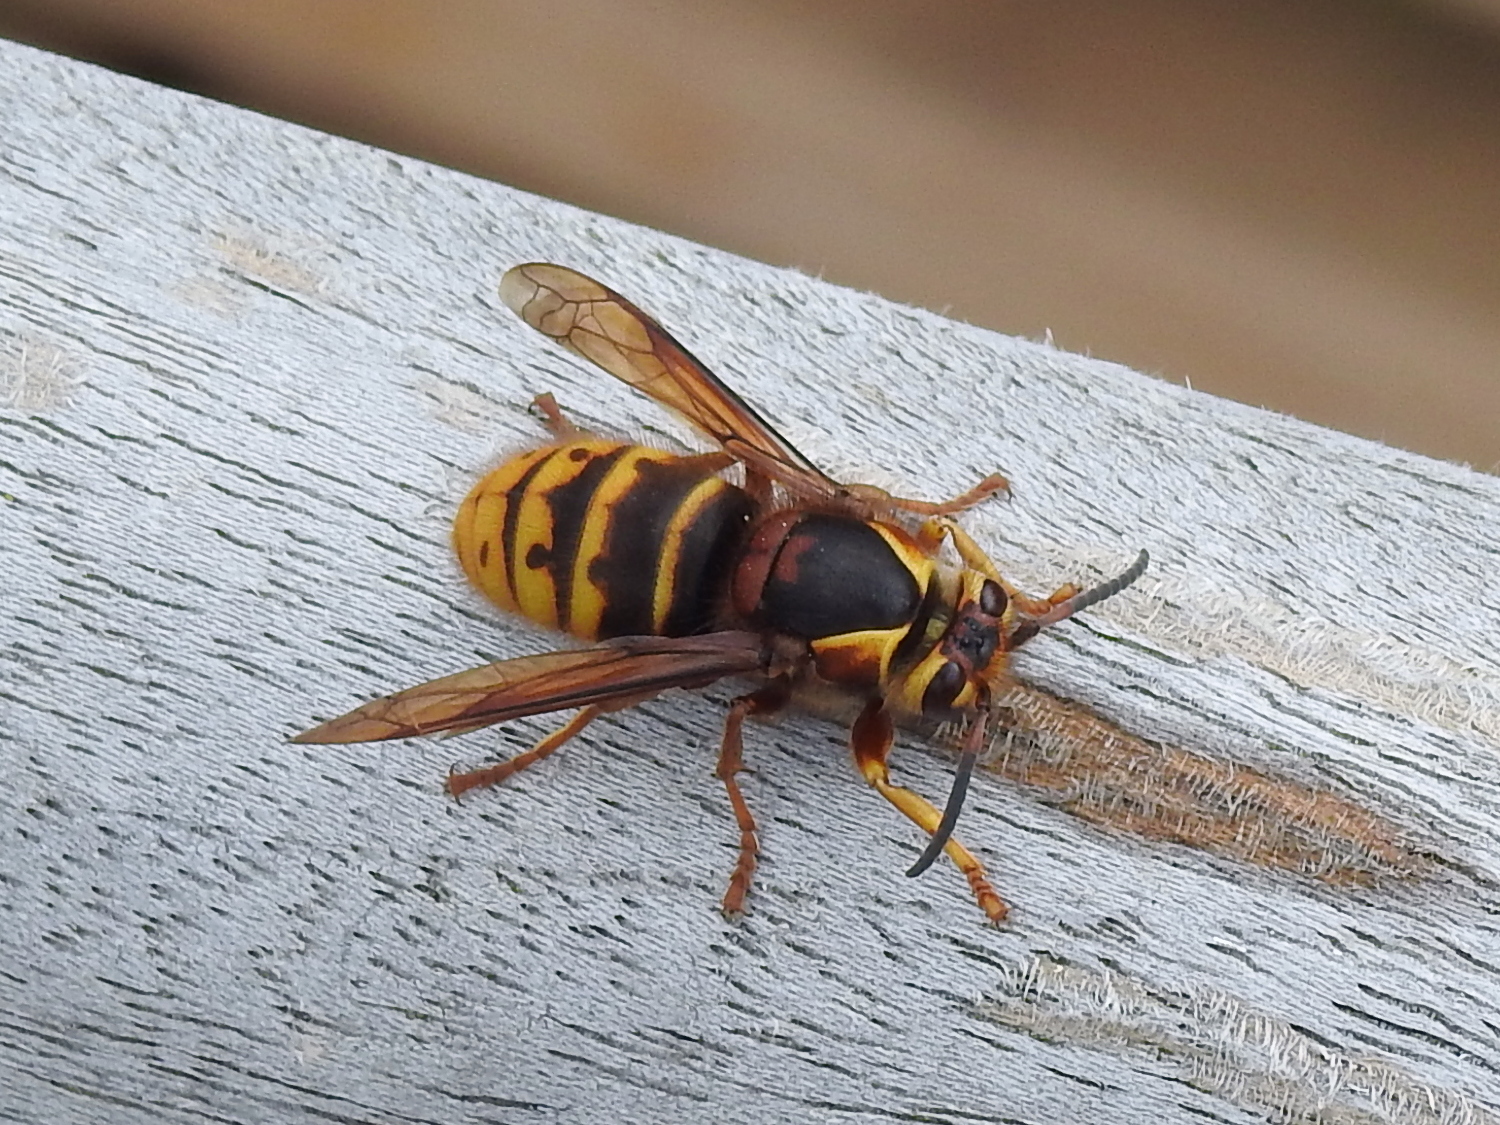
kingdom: Animalia
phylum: Arthropoda
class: Insecta
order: Hymenoptera
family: Vespidae
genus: Dolichovespula
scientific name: Dolichovespula media
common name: Median wasp
